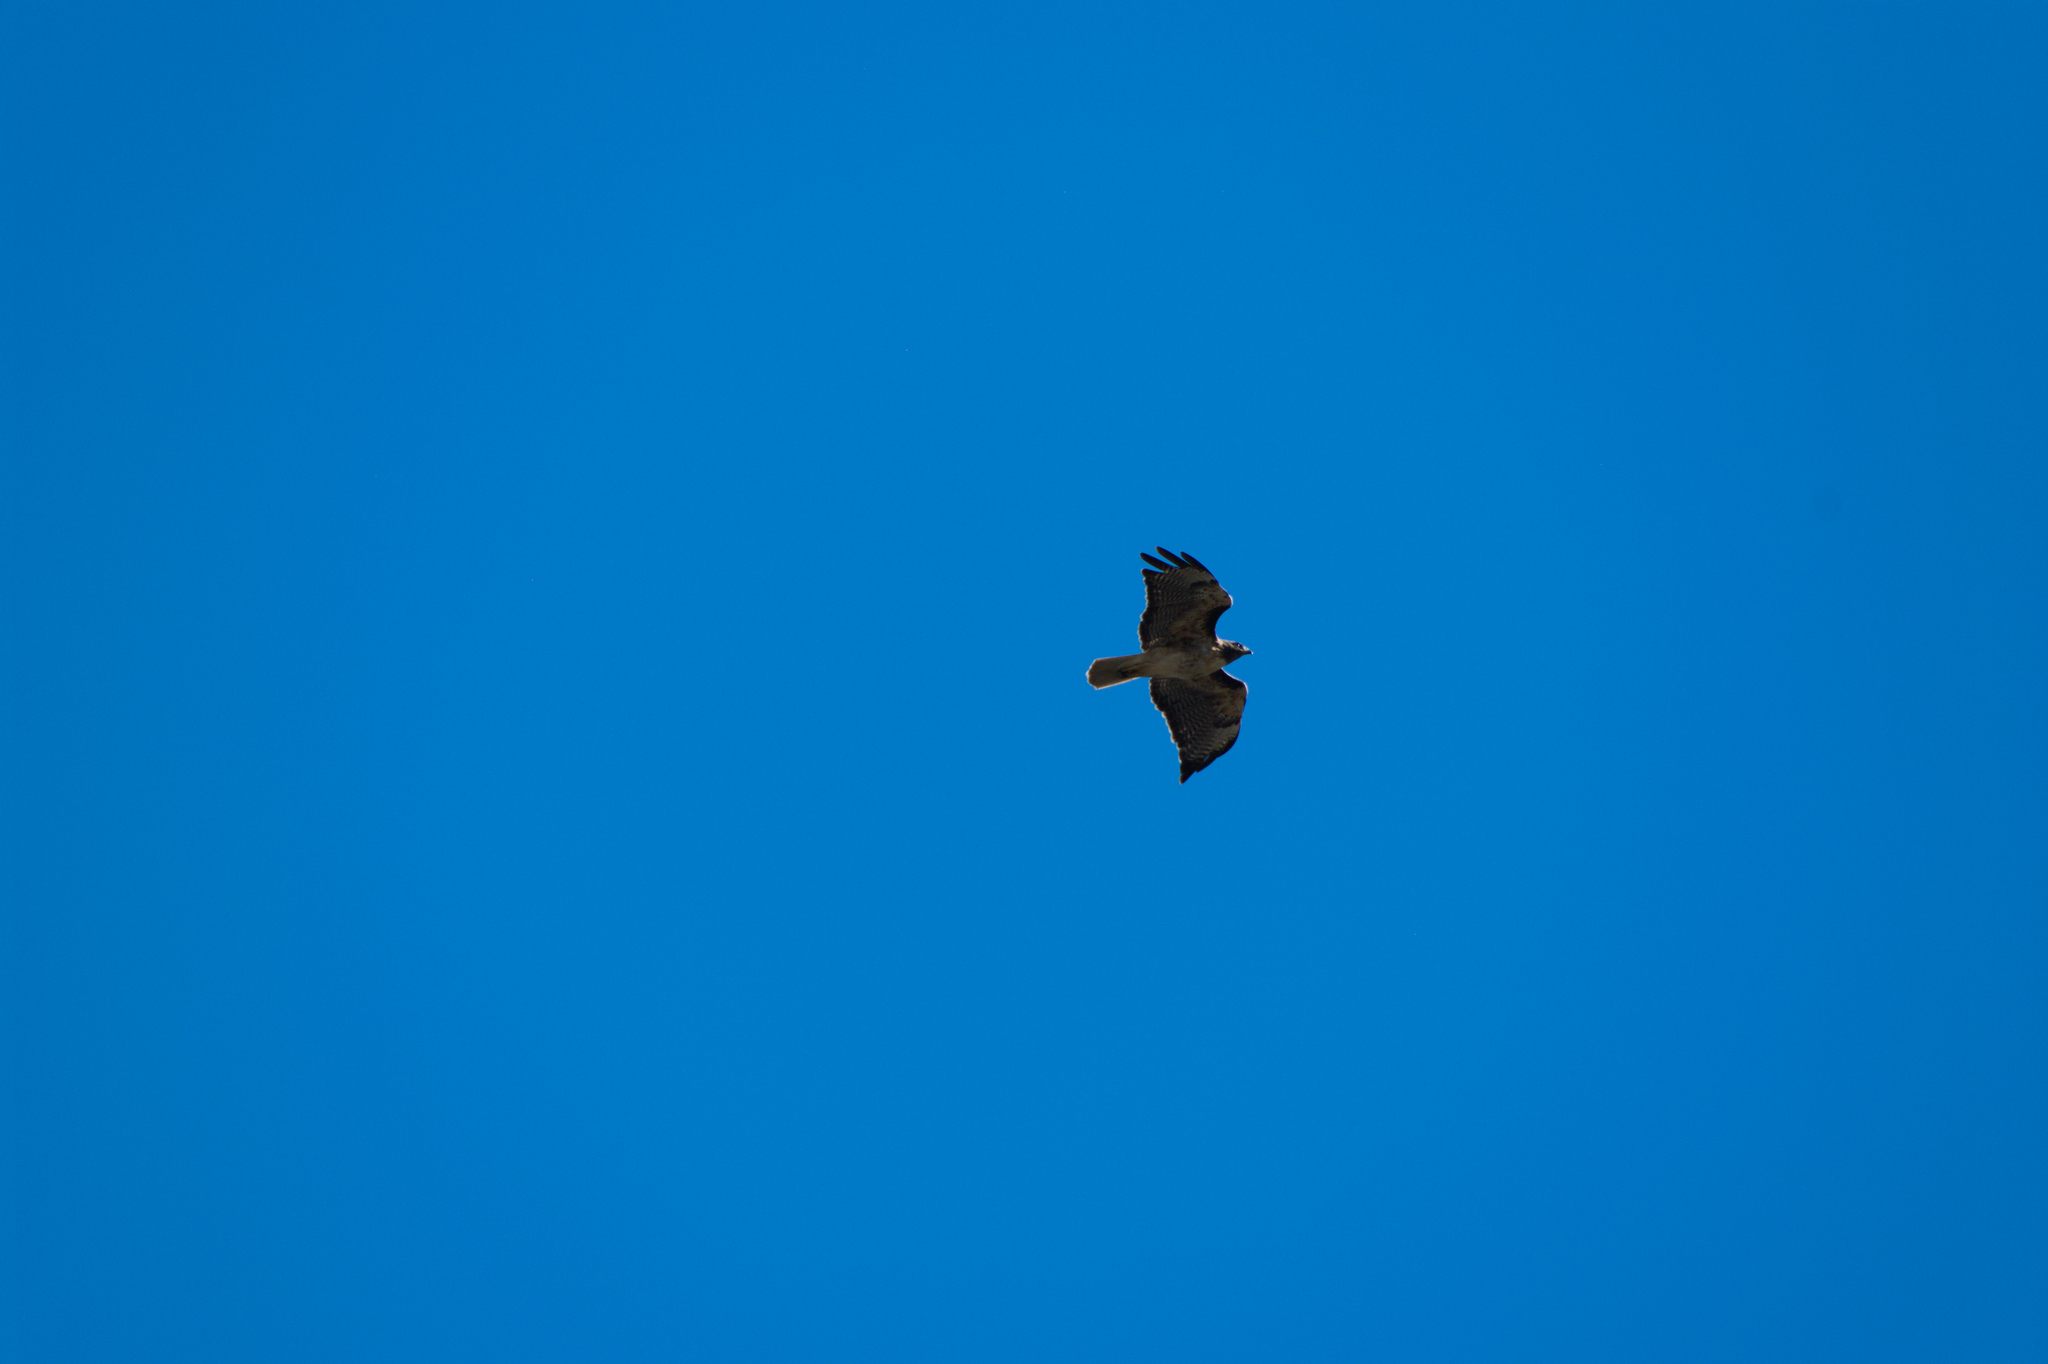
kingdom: Animalia
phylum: Chordata
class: Aves
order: Accipitriformes
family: Accipitridae
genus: Buteo
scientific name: Buteo jamaicensis
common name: Red-tailed hawk
